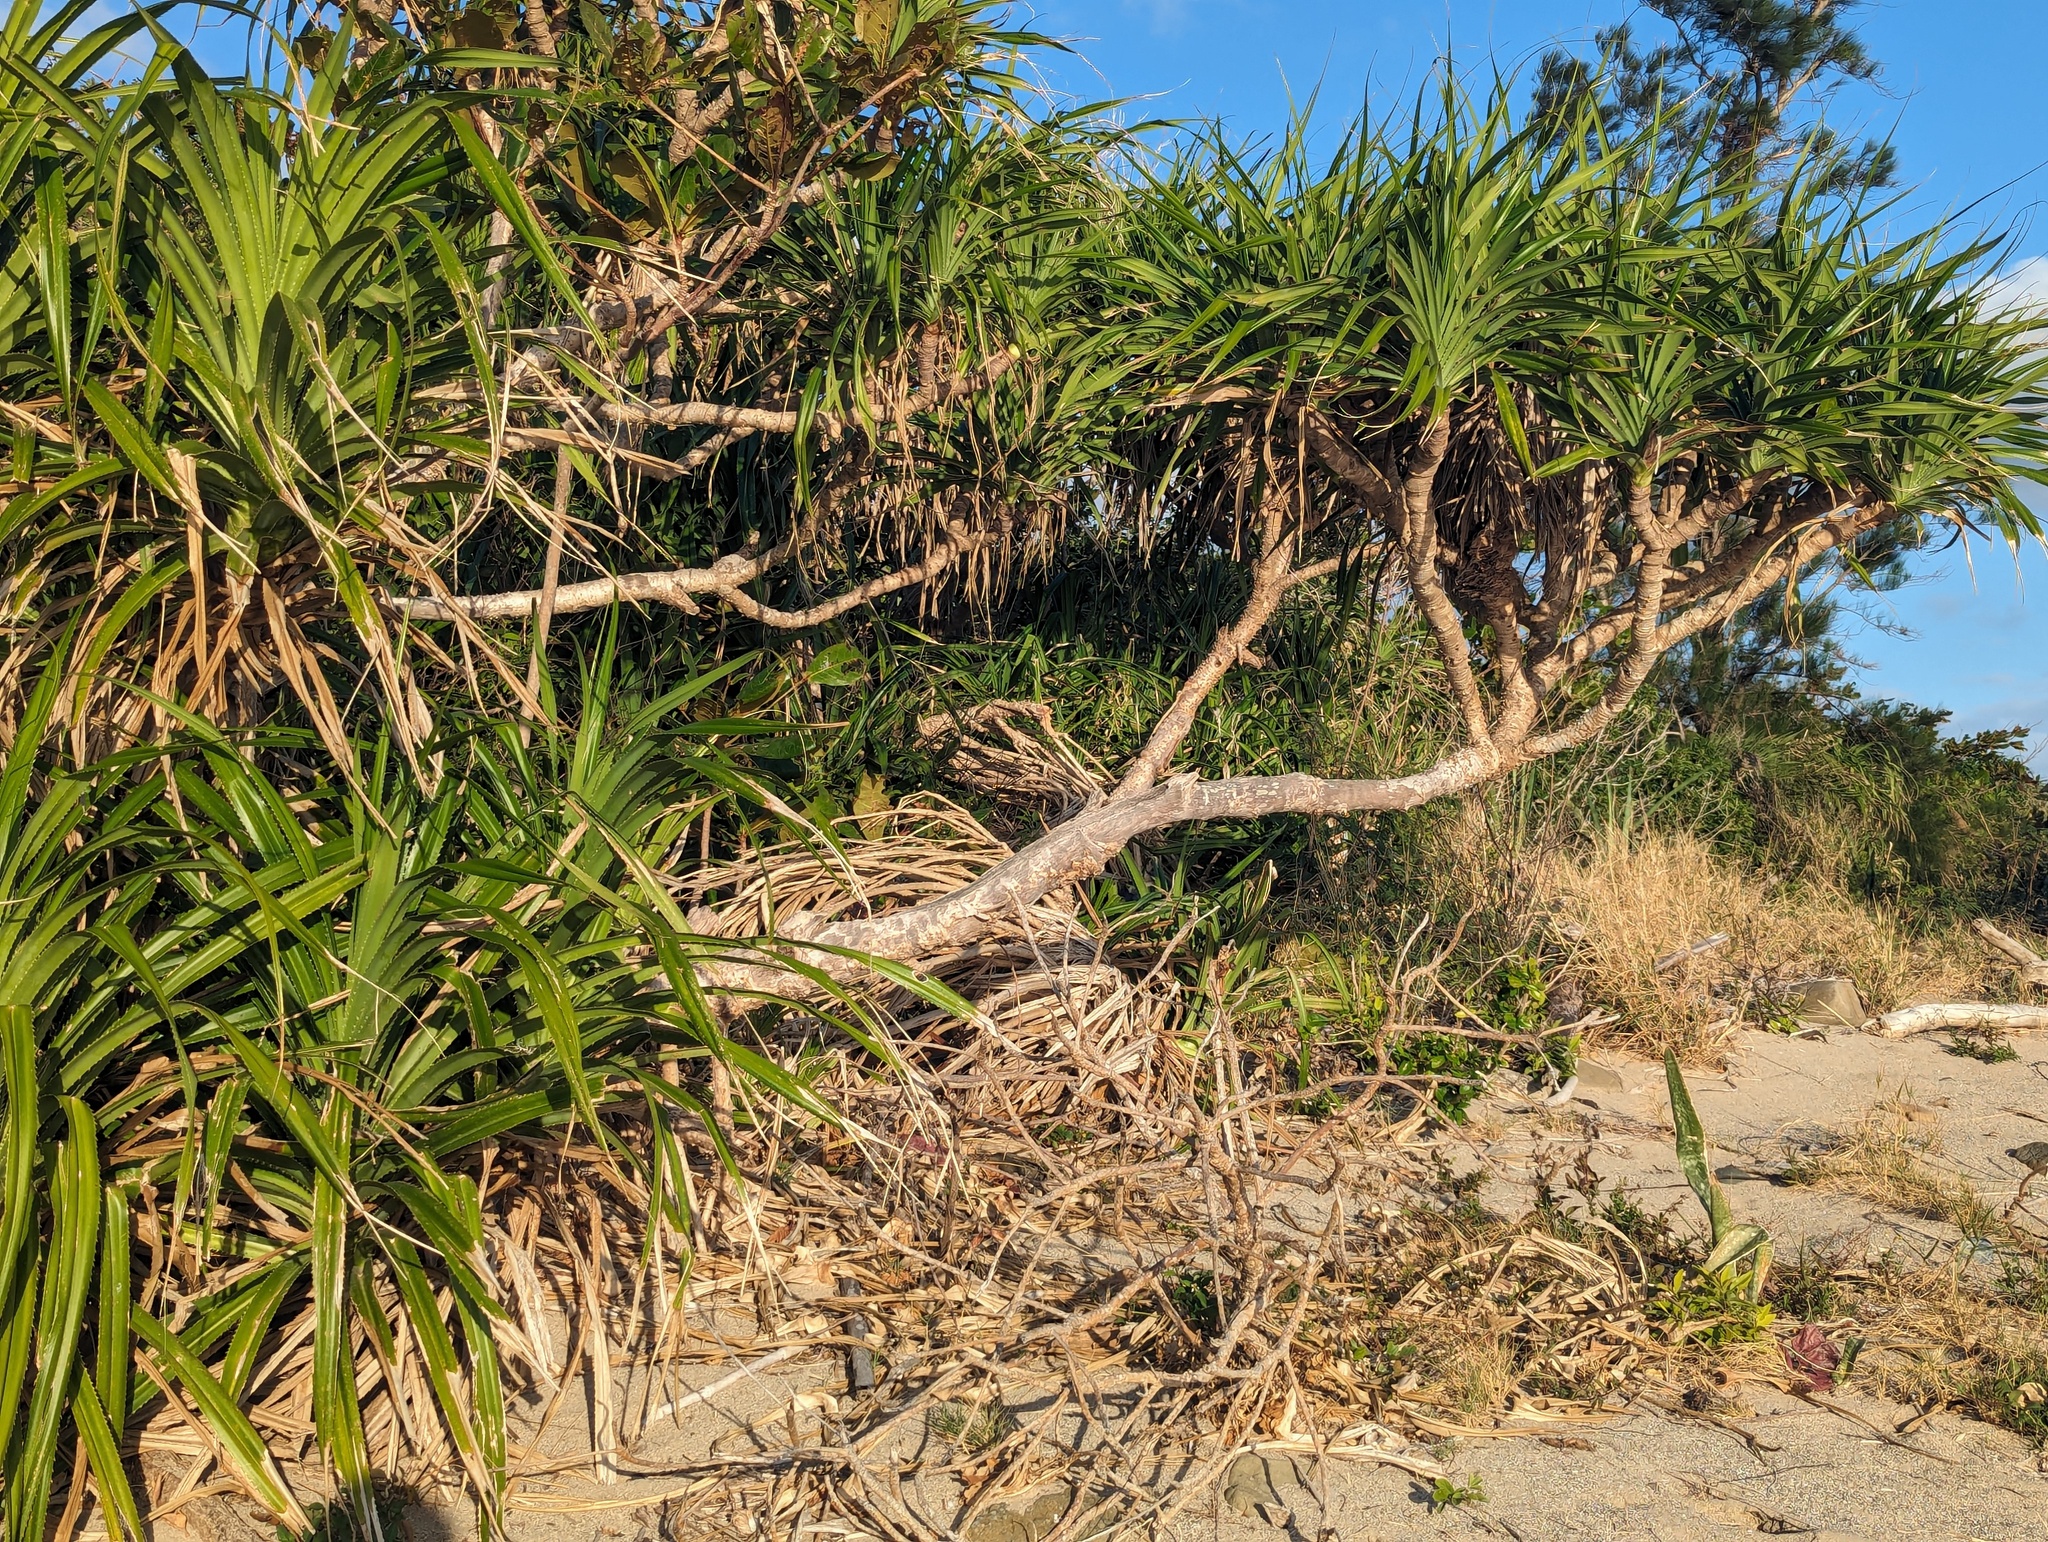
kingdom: Plantae
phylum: Tracheophyta
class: Liliopsida
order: Pandanales
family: Pandanaceae
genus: Pandanus
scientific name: Pandanus odorifer
